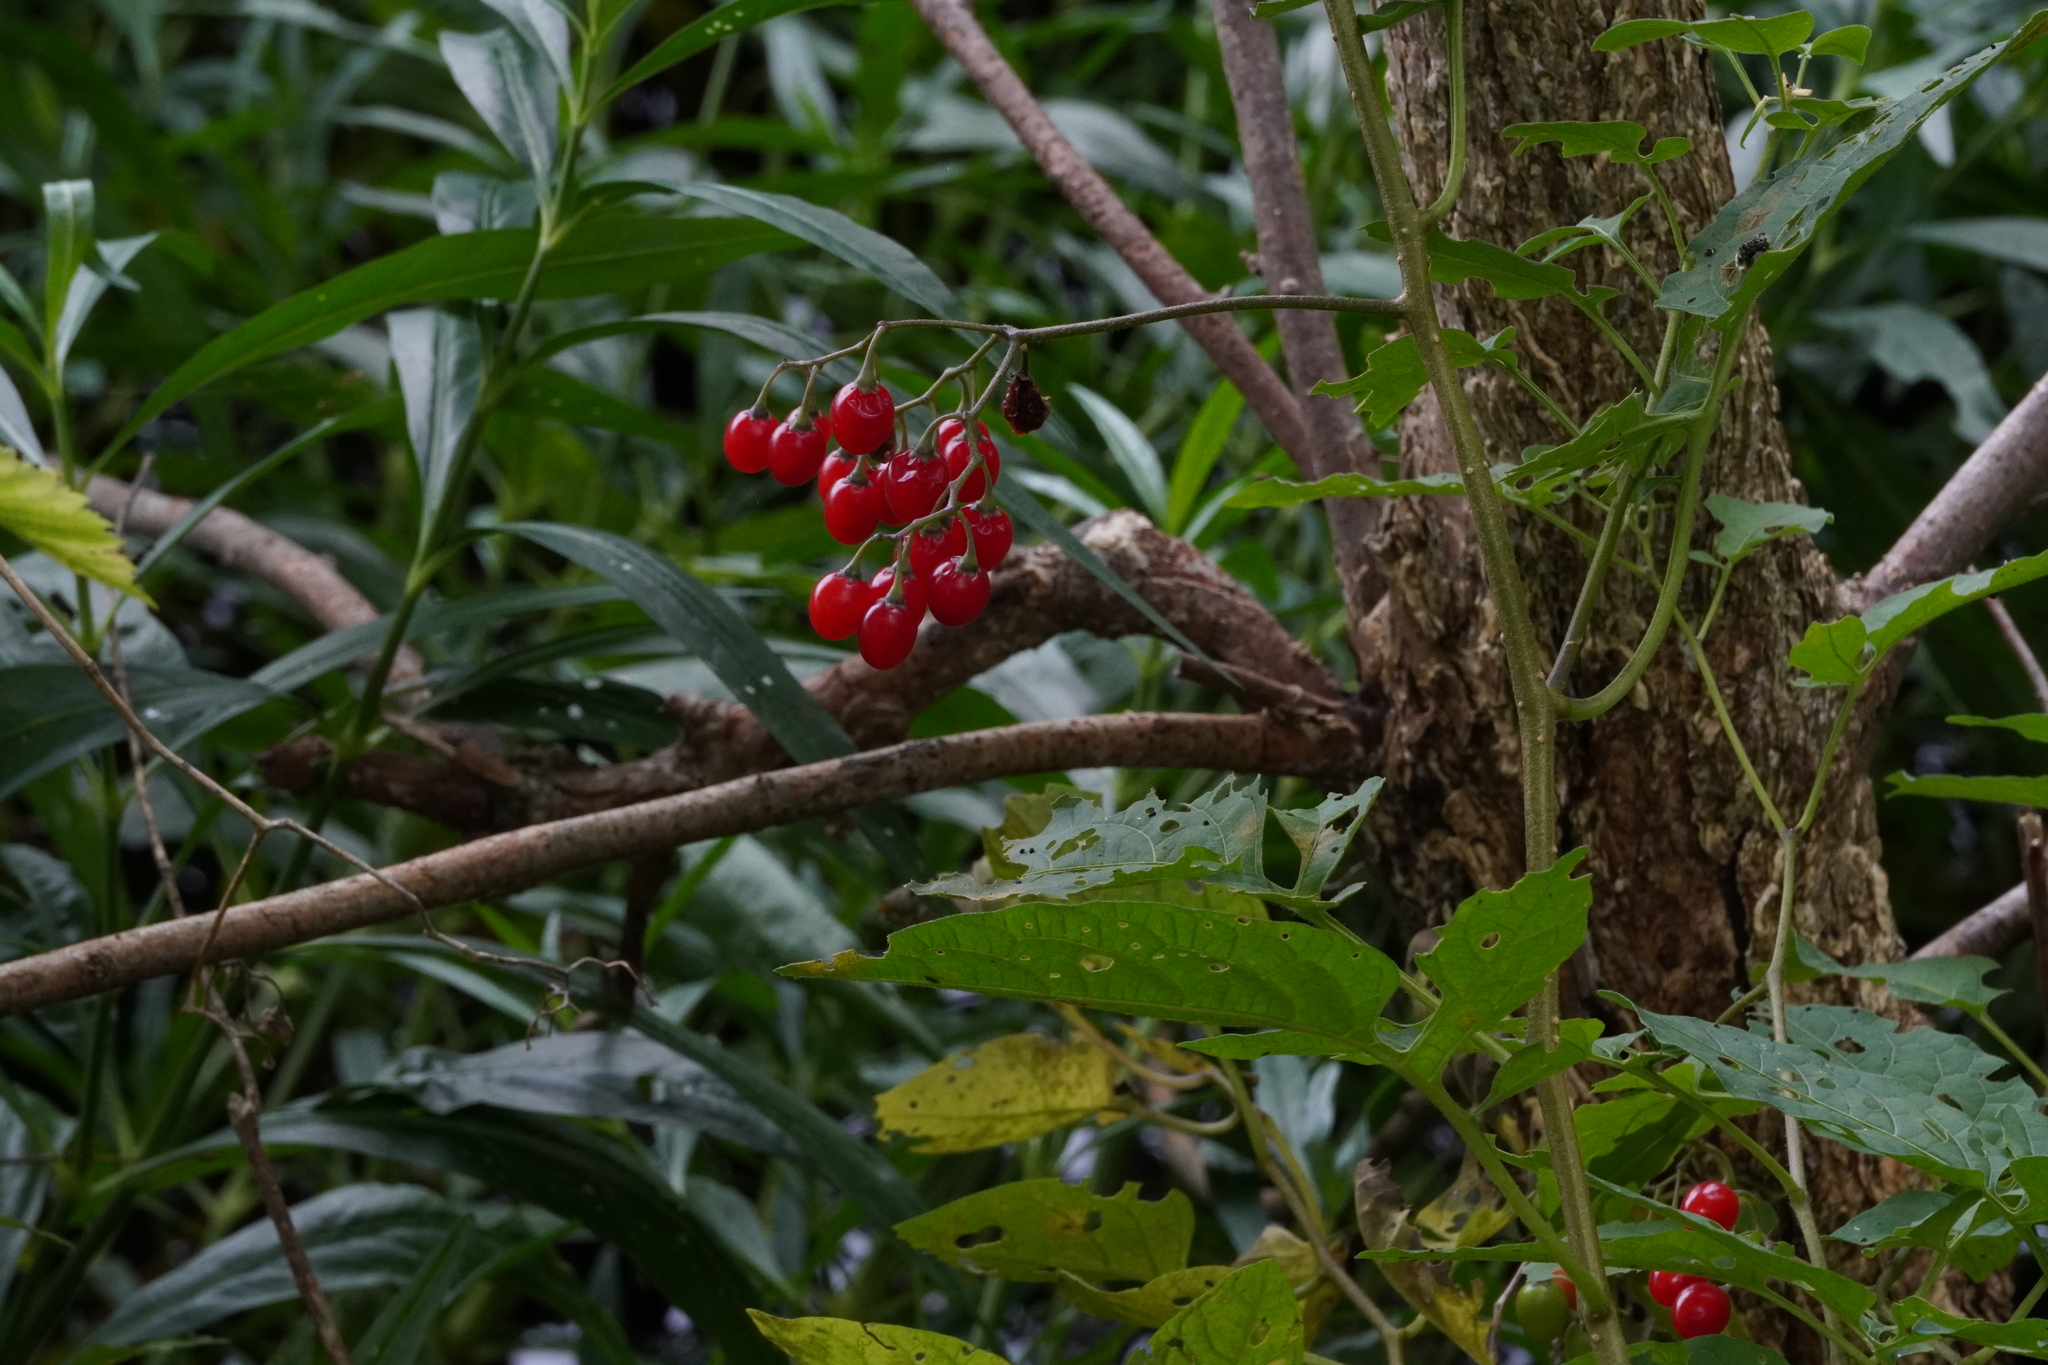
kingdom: Plantae
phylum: Tracheophyta
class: Magnoliopsida
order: Solanales
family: Solanaceae
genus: Solanum
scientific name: Solanum dulcamara
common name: Climbing nightshade
